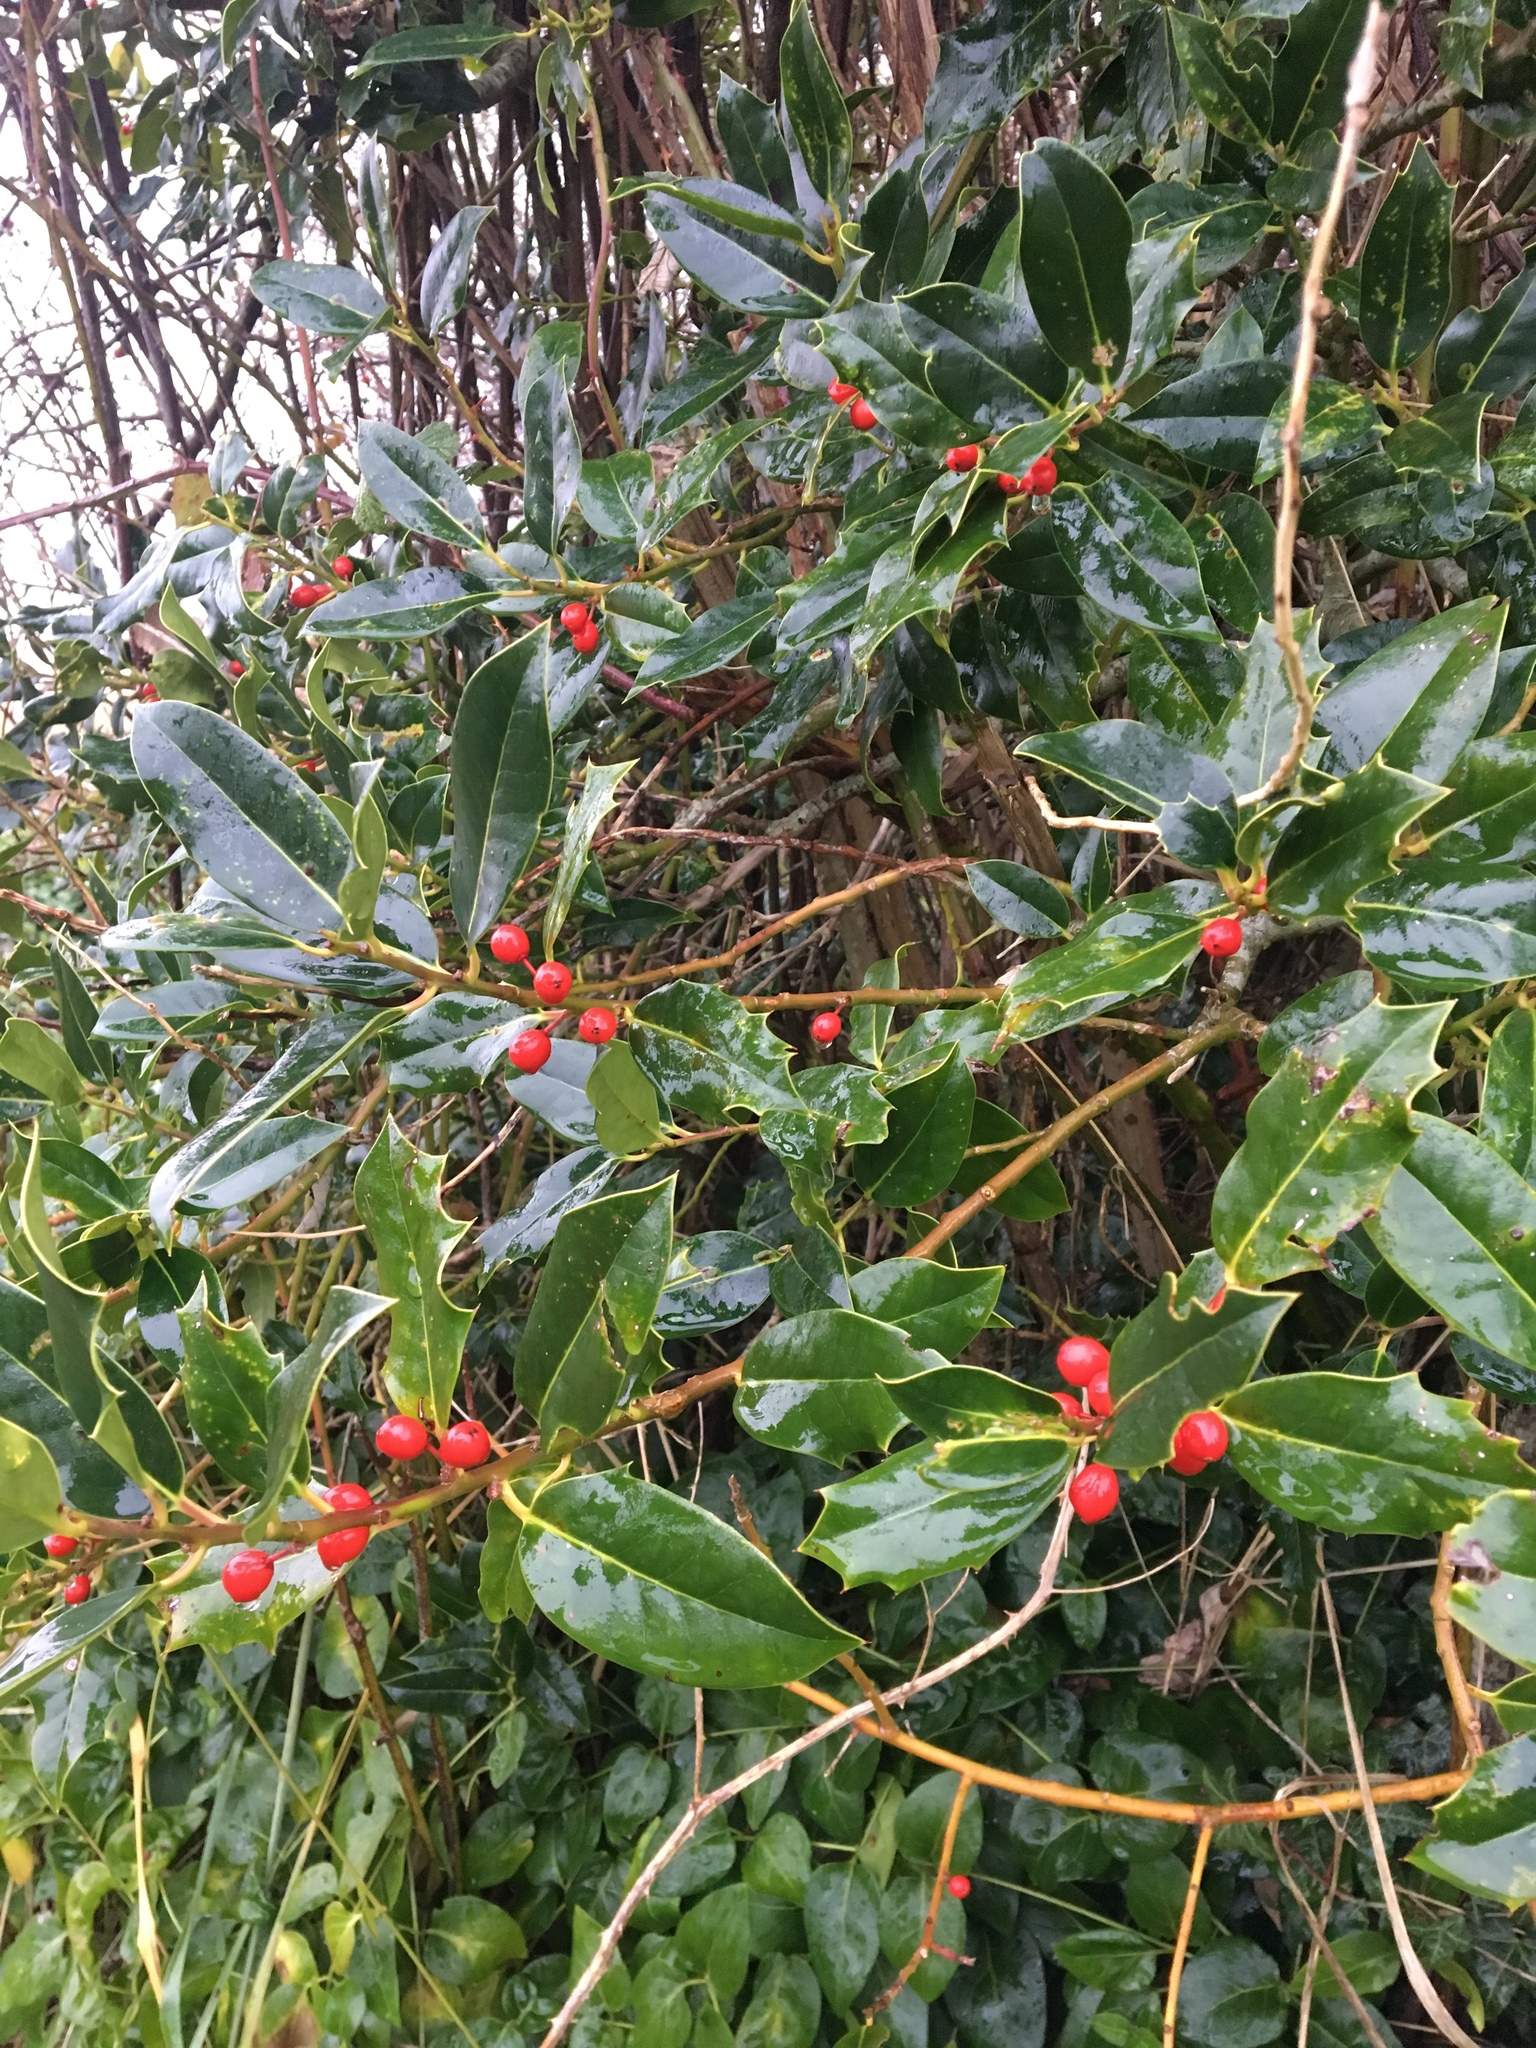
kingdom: Plantae
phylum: Tracheophyta
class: Magnoliopsida
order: Aquifoliales
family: Aquifoliaceae
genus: Ilex
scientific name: Ilex aquifolium
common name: English holly
